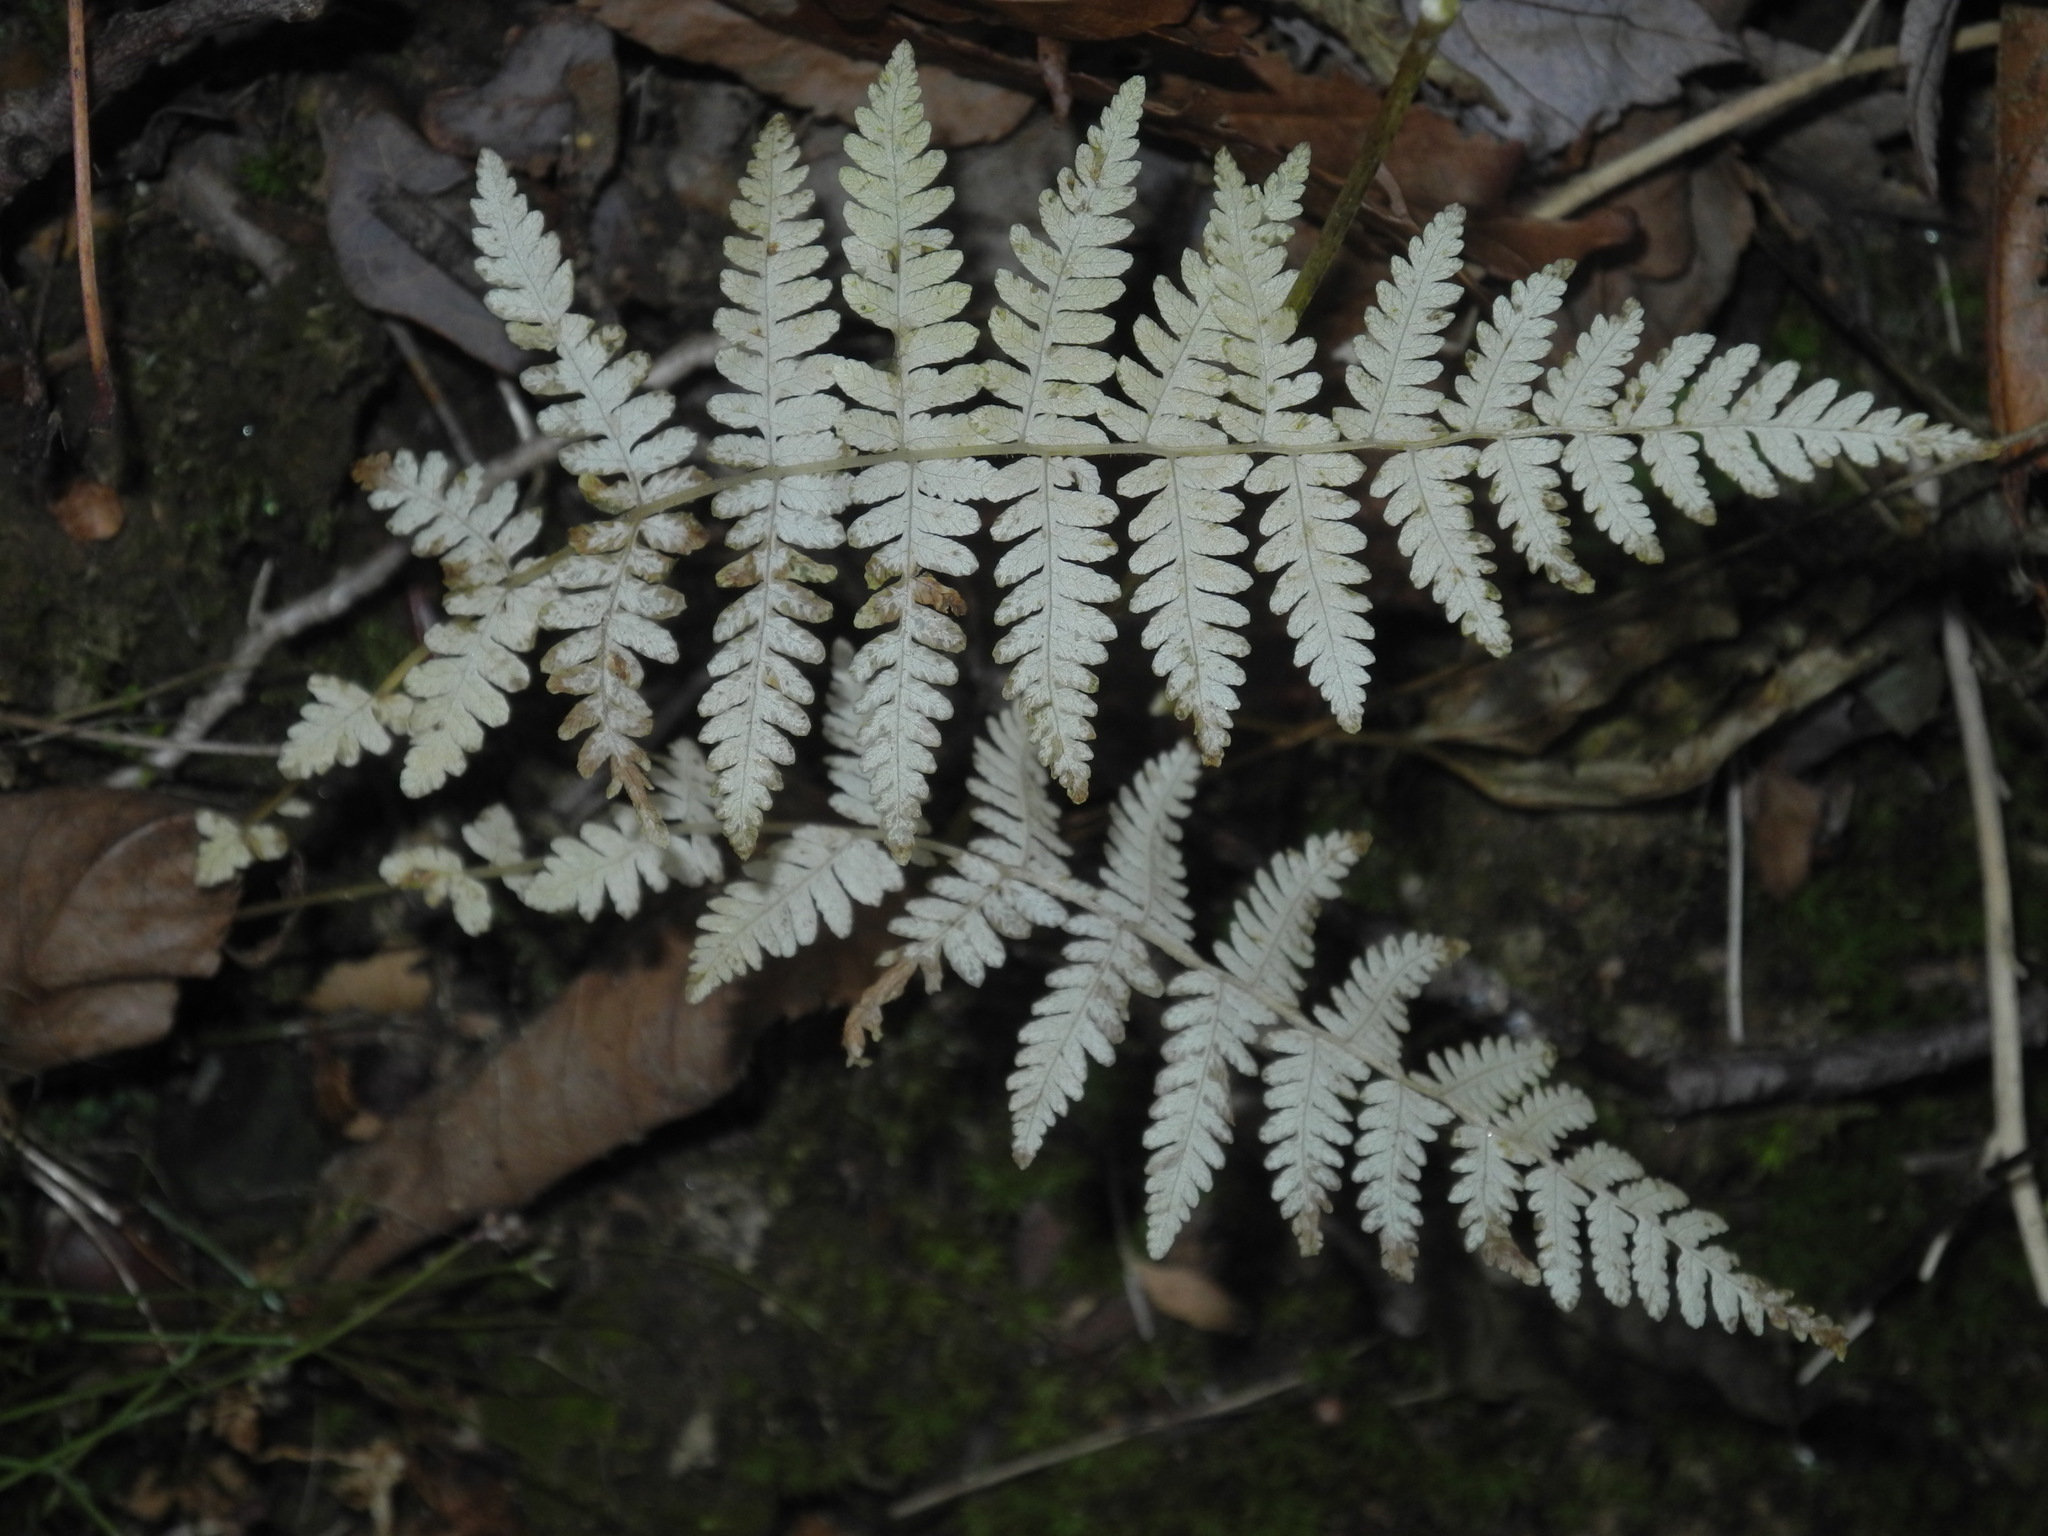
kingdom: Plantae
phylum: Tracheophyta
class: Polypodiopsida
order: Polypodiales
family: Thelypteridaceae
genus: Amauropelta
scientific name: Amauropelta noveboracensis
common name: New york fern
